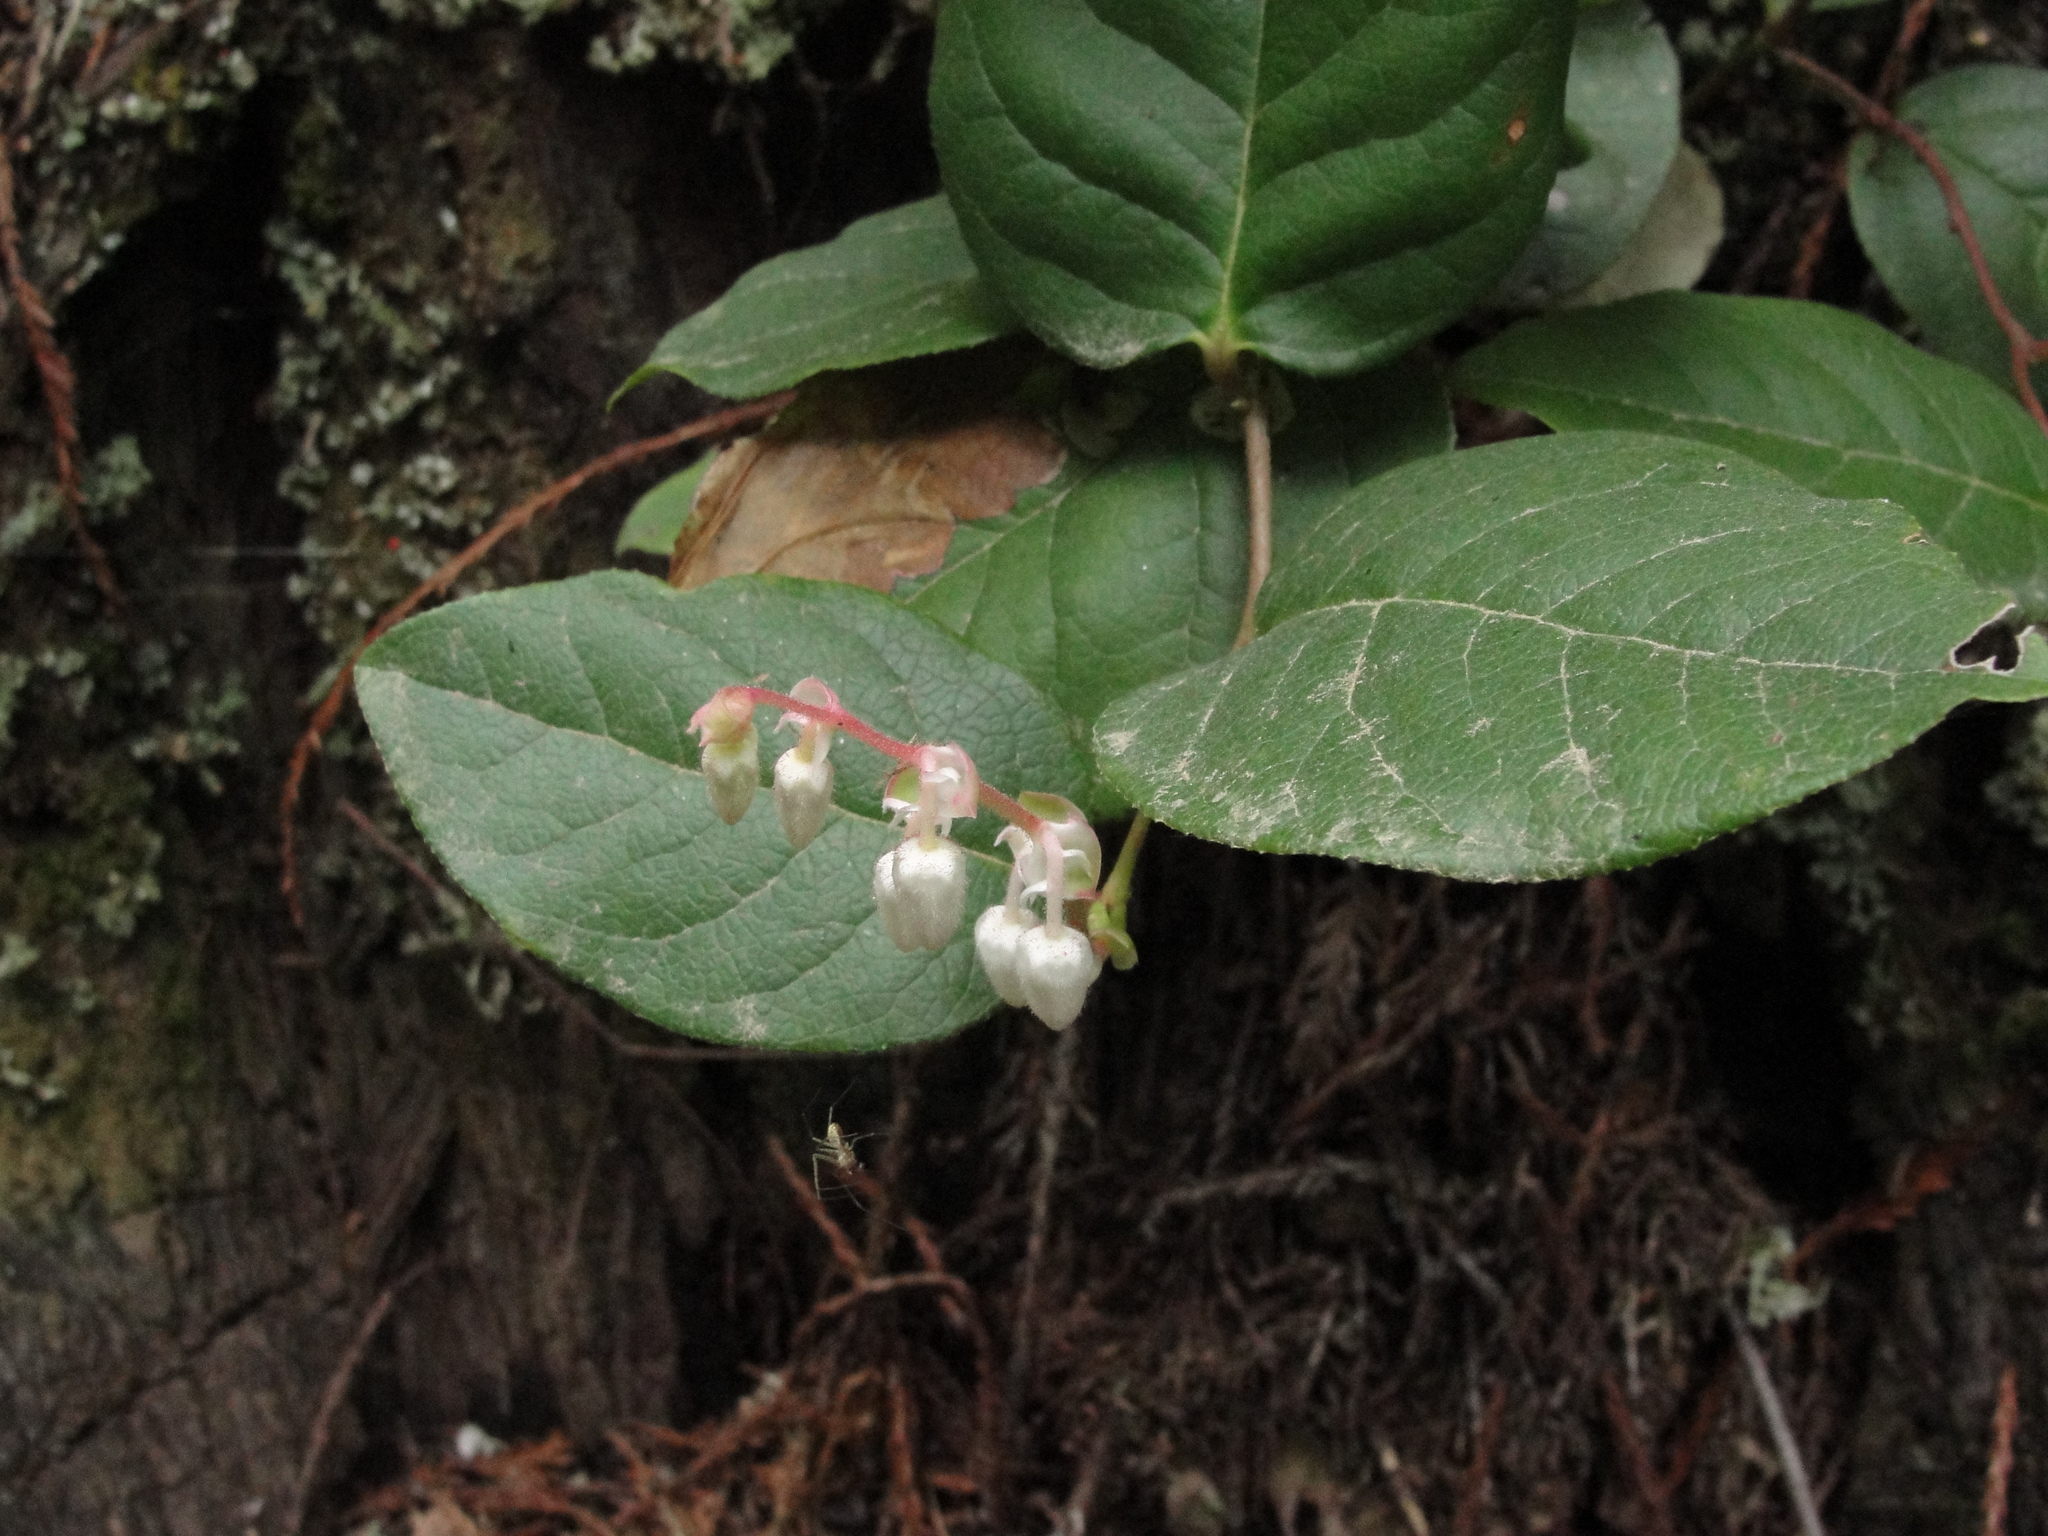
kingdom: Plantae
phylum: Tracheophyta
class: Magnoliopsida
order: Ericales
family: Ericaceae
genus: Gaultheria
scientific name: Gaultheria shallon
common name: Shallon
